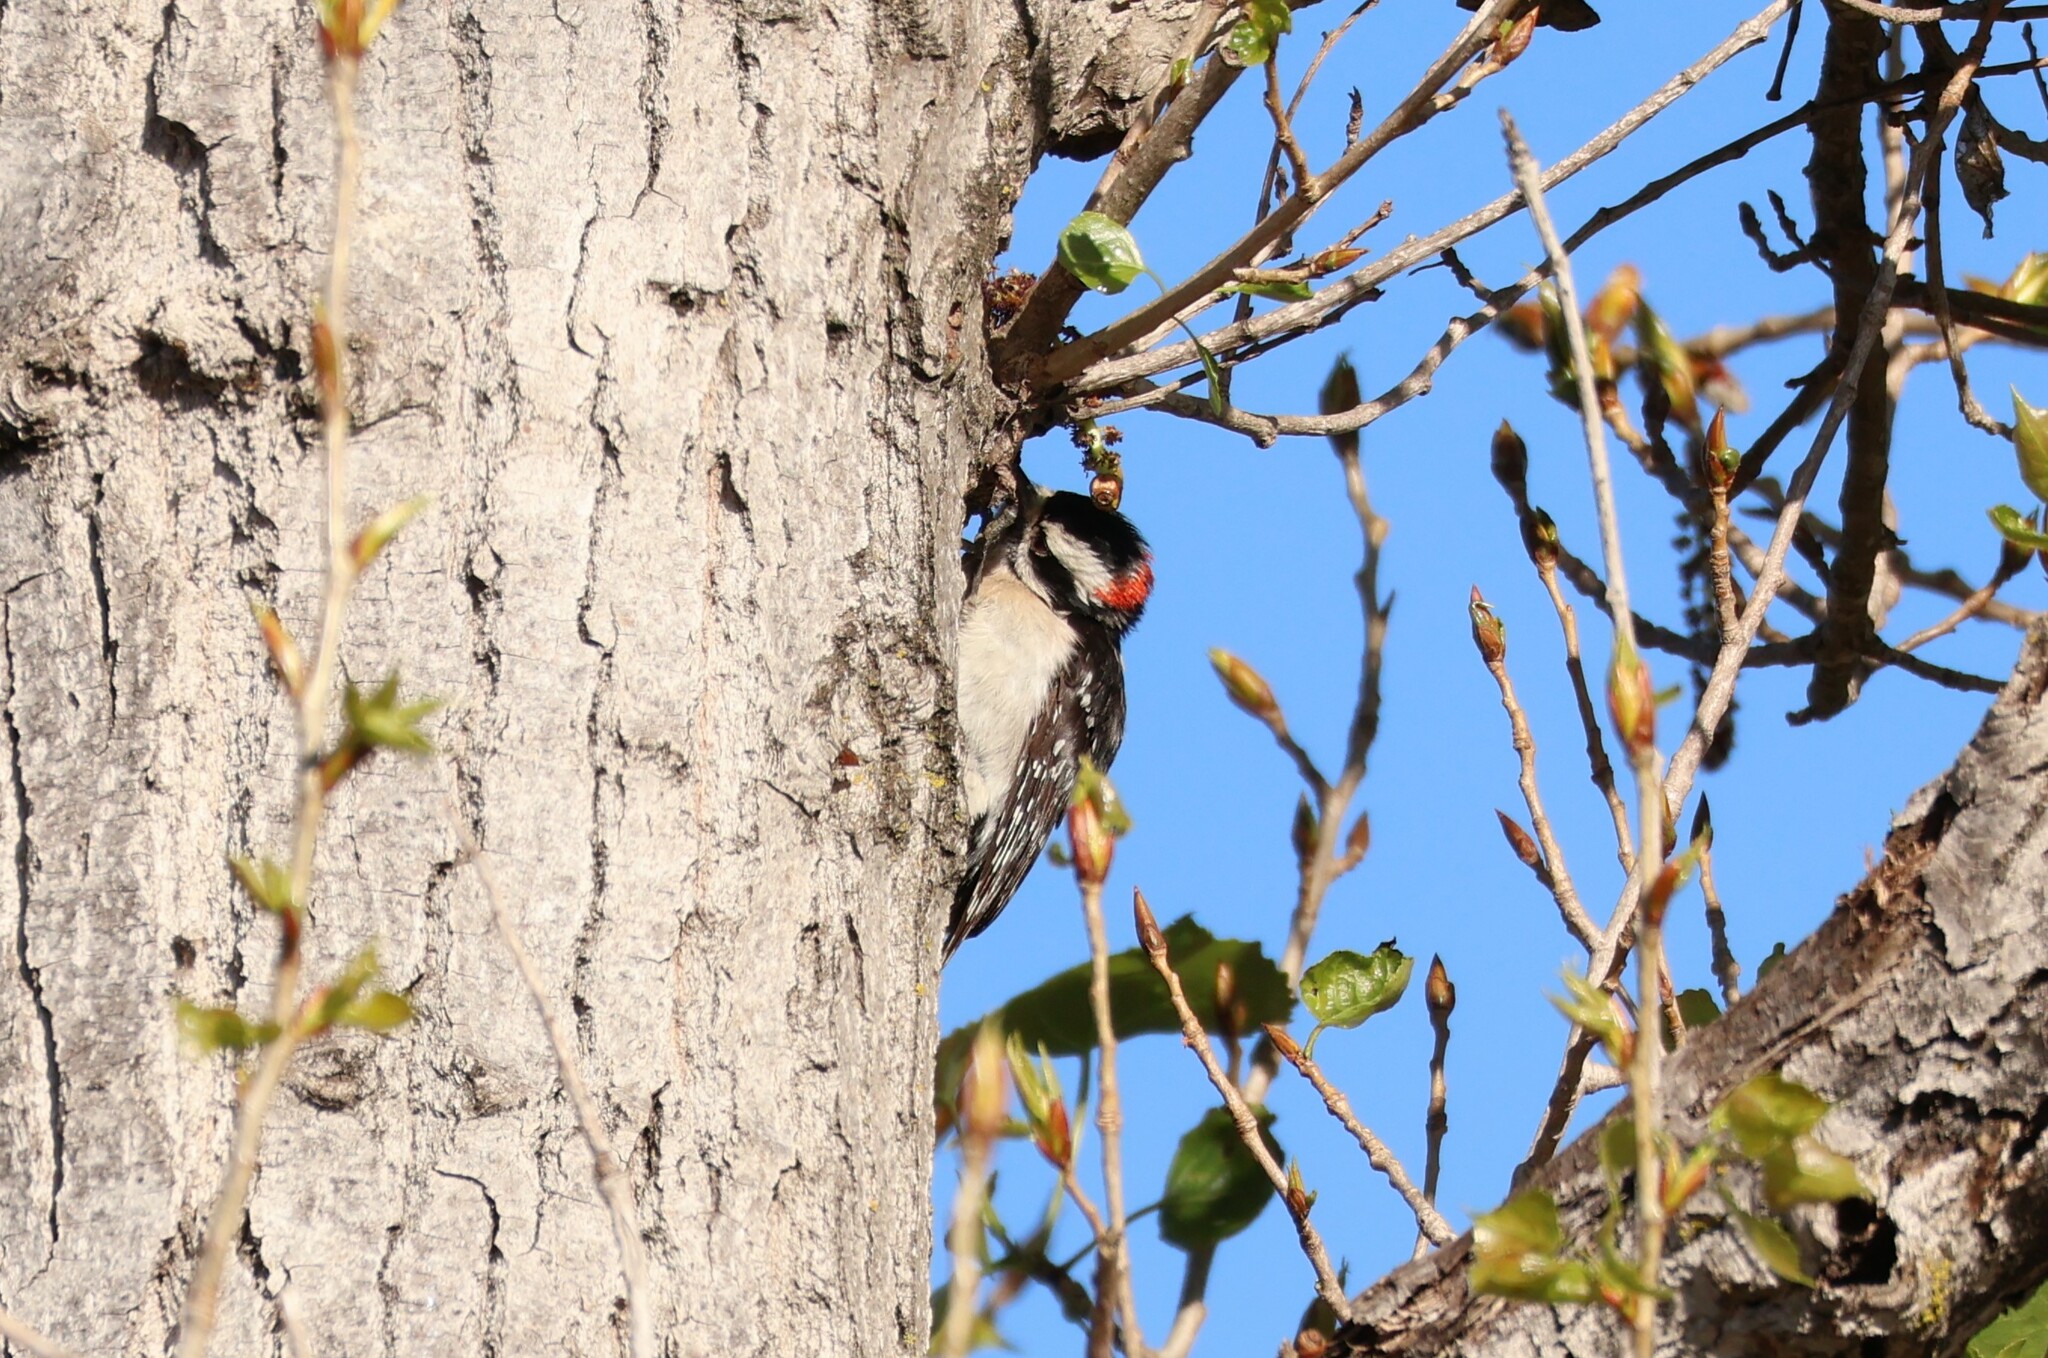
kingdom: Animalia
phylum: Chordata
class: Aves
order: Piciformes
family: Picidae
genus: Dryobates
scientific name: Dryobates pubescens
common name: Downy woodpecker
